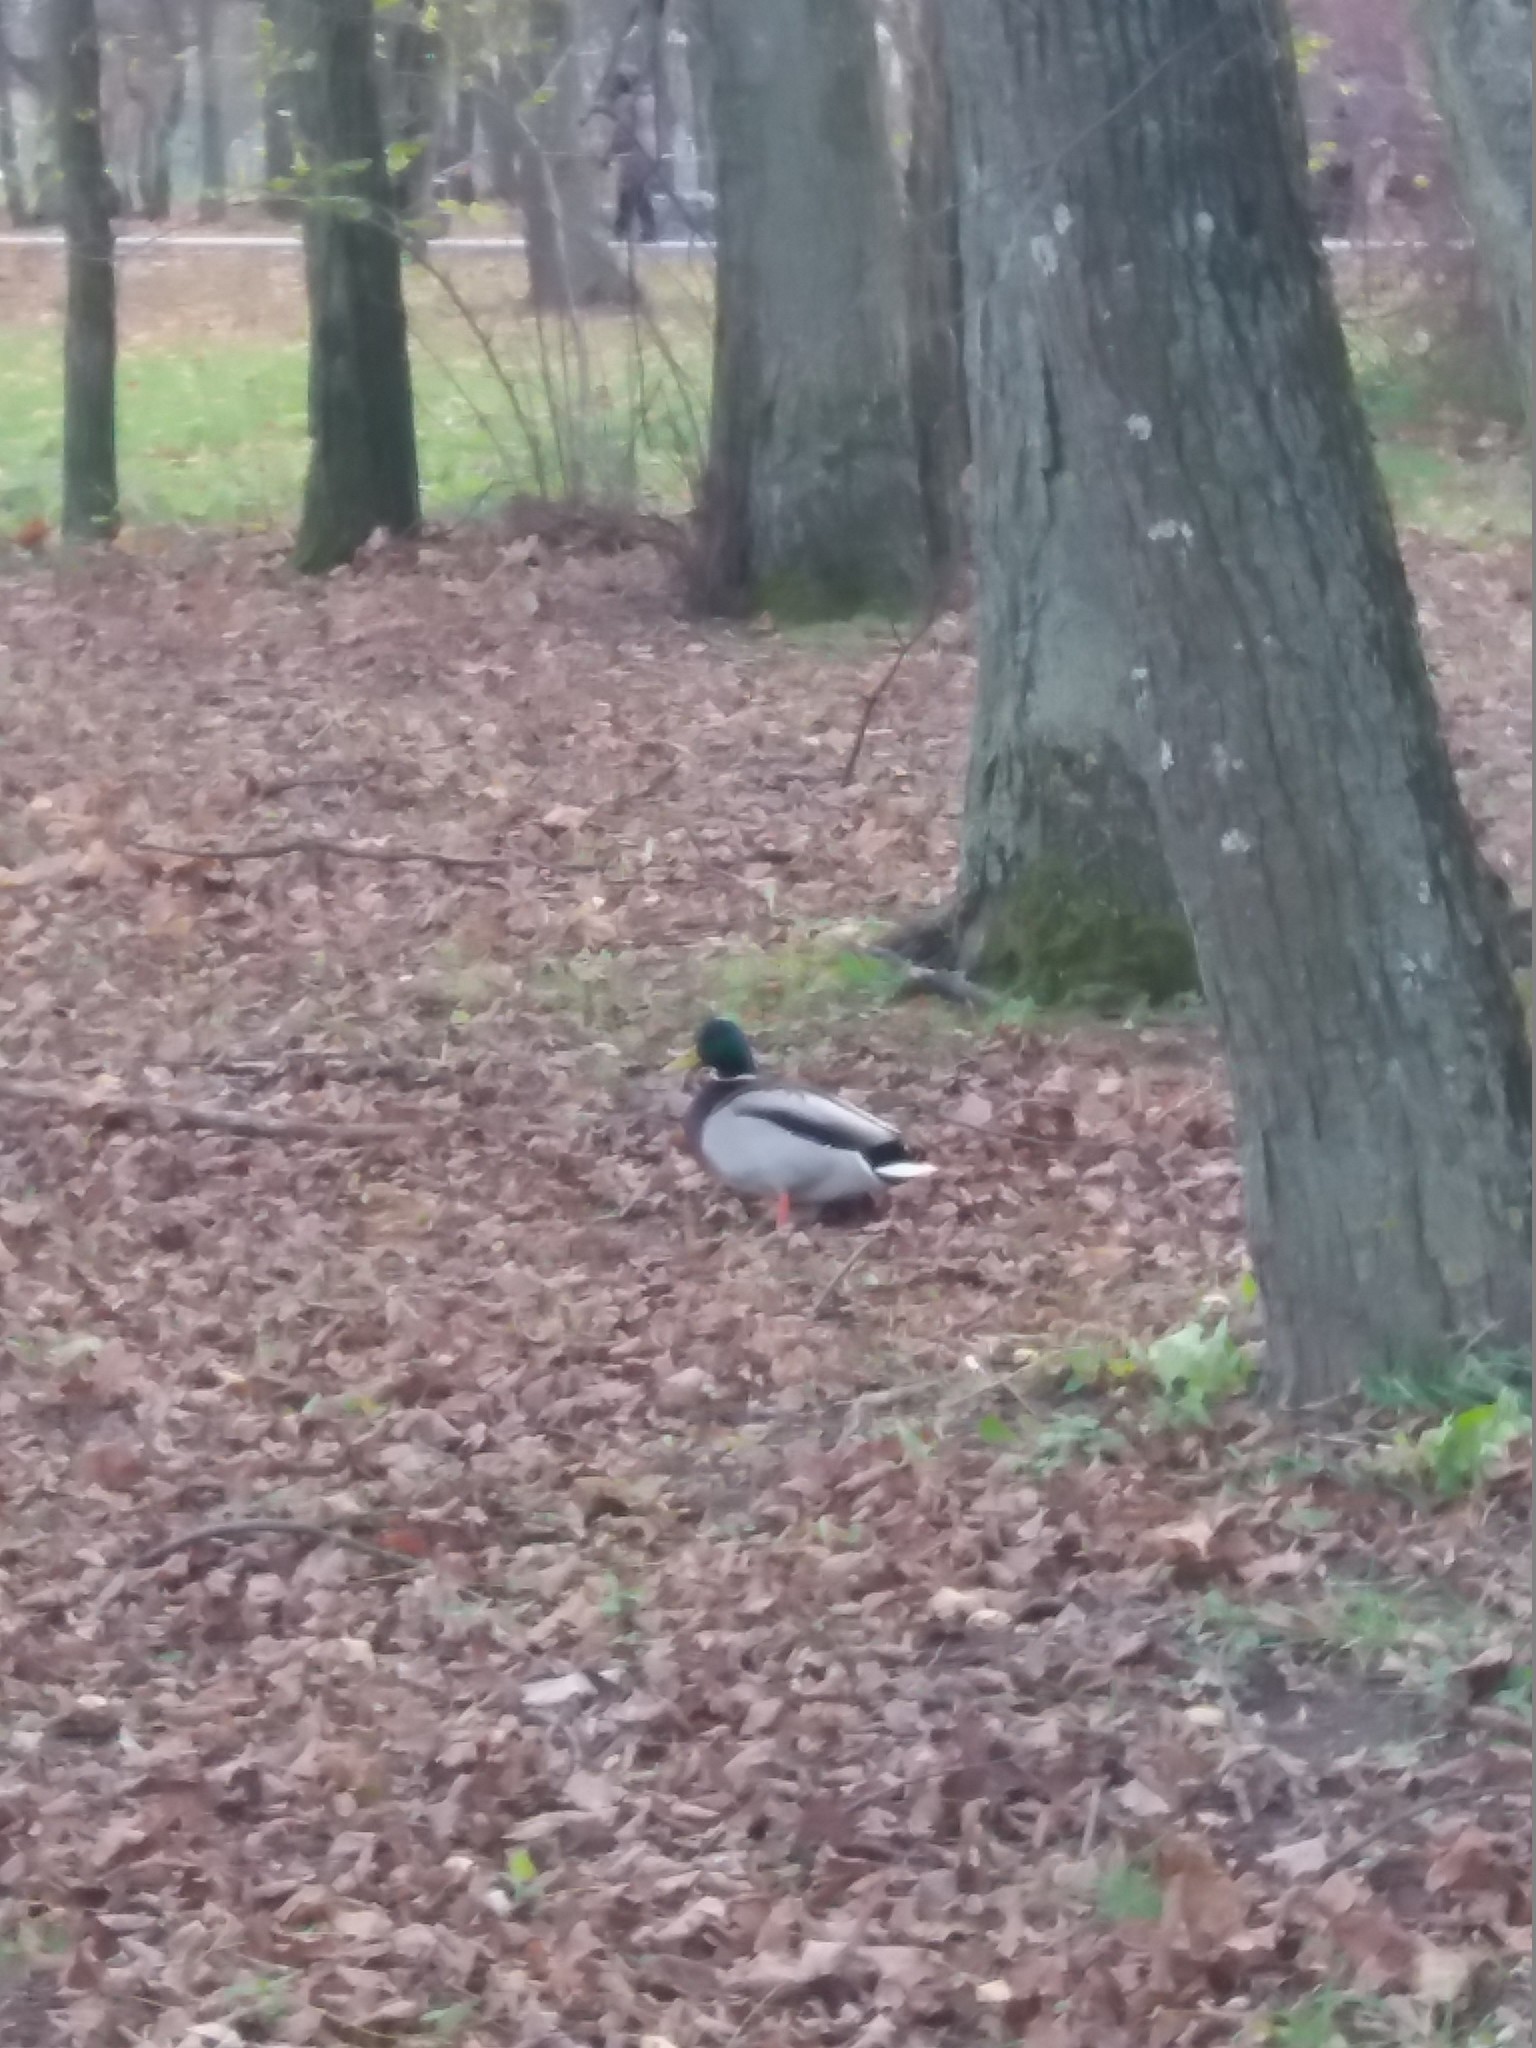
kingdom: Animalia
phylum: Chordata
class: Aves
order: Anseriformes
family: Anatidae
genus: Anas
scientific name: Anas platyrhynchos
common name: Mallard
